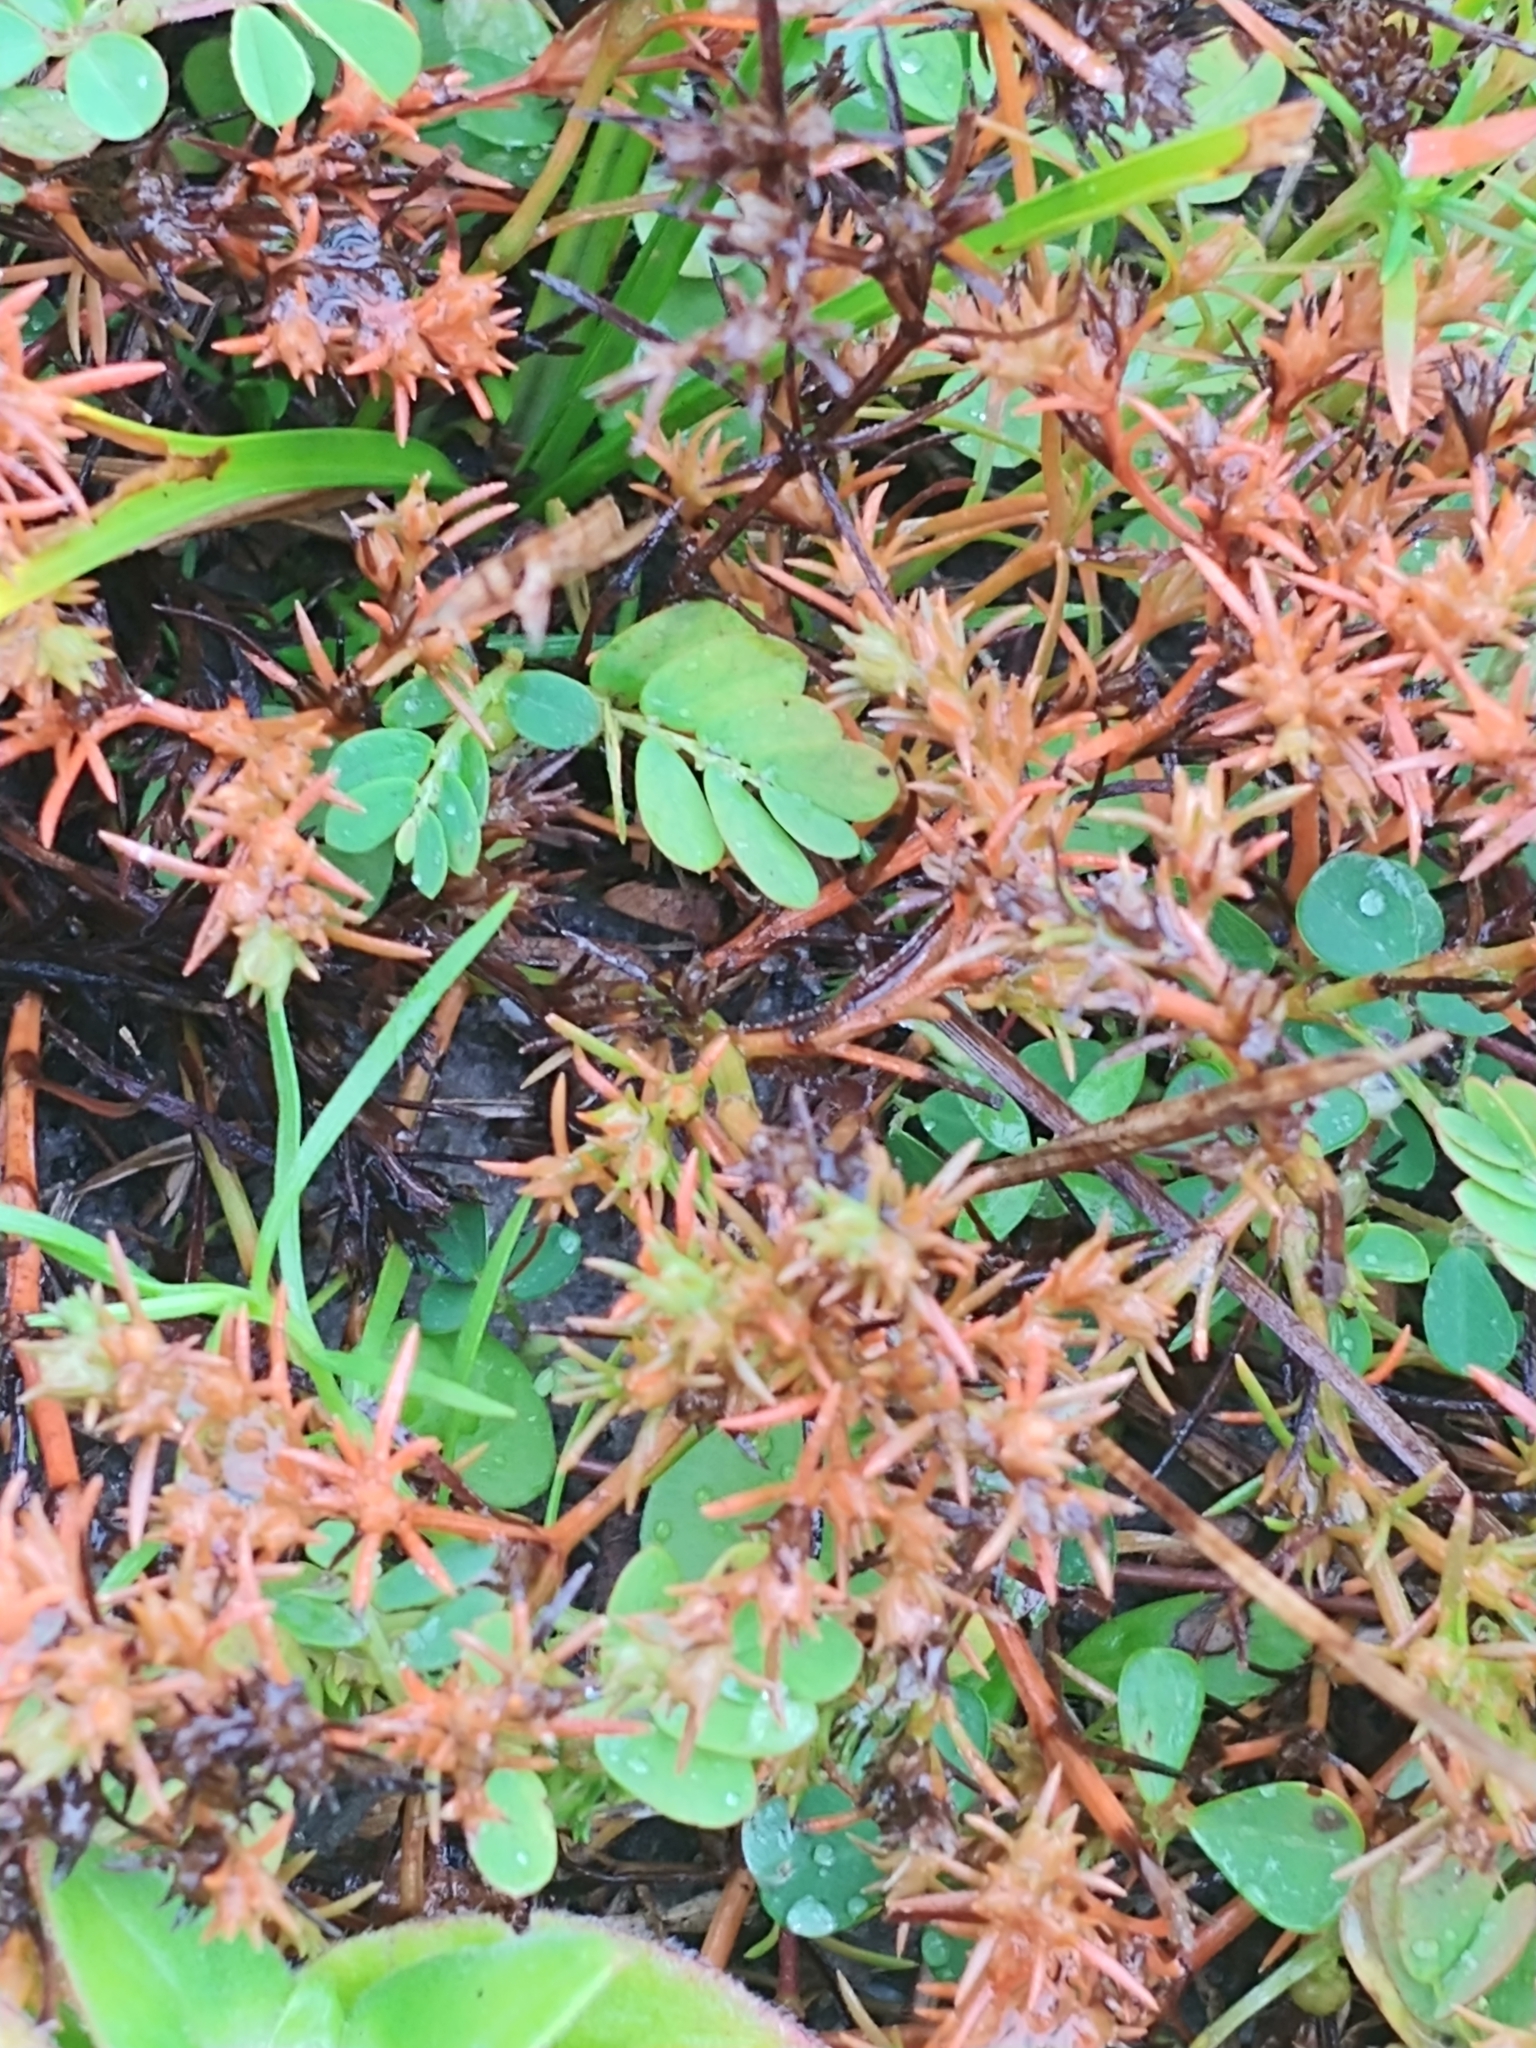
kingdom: Plantae
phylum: Tracheophyta
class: Magnoliopsida
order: Lamiales
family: Tetrachondraceae
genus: Polypremum
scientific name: Polypremum procumbens
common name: Juniper-leaf
